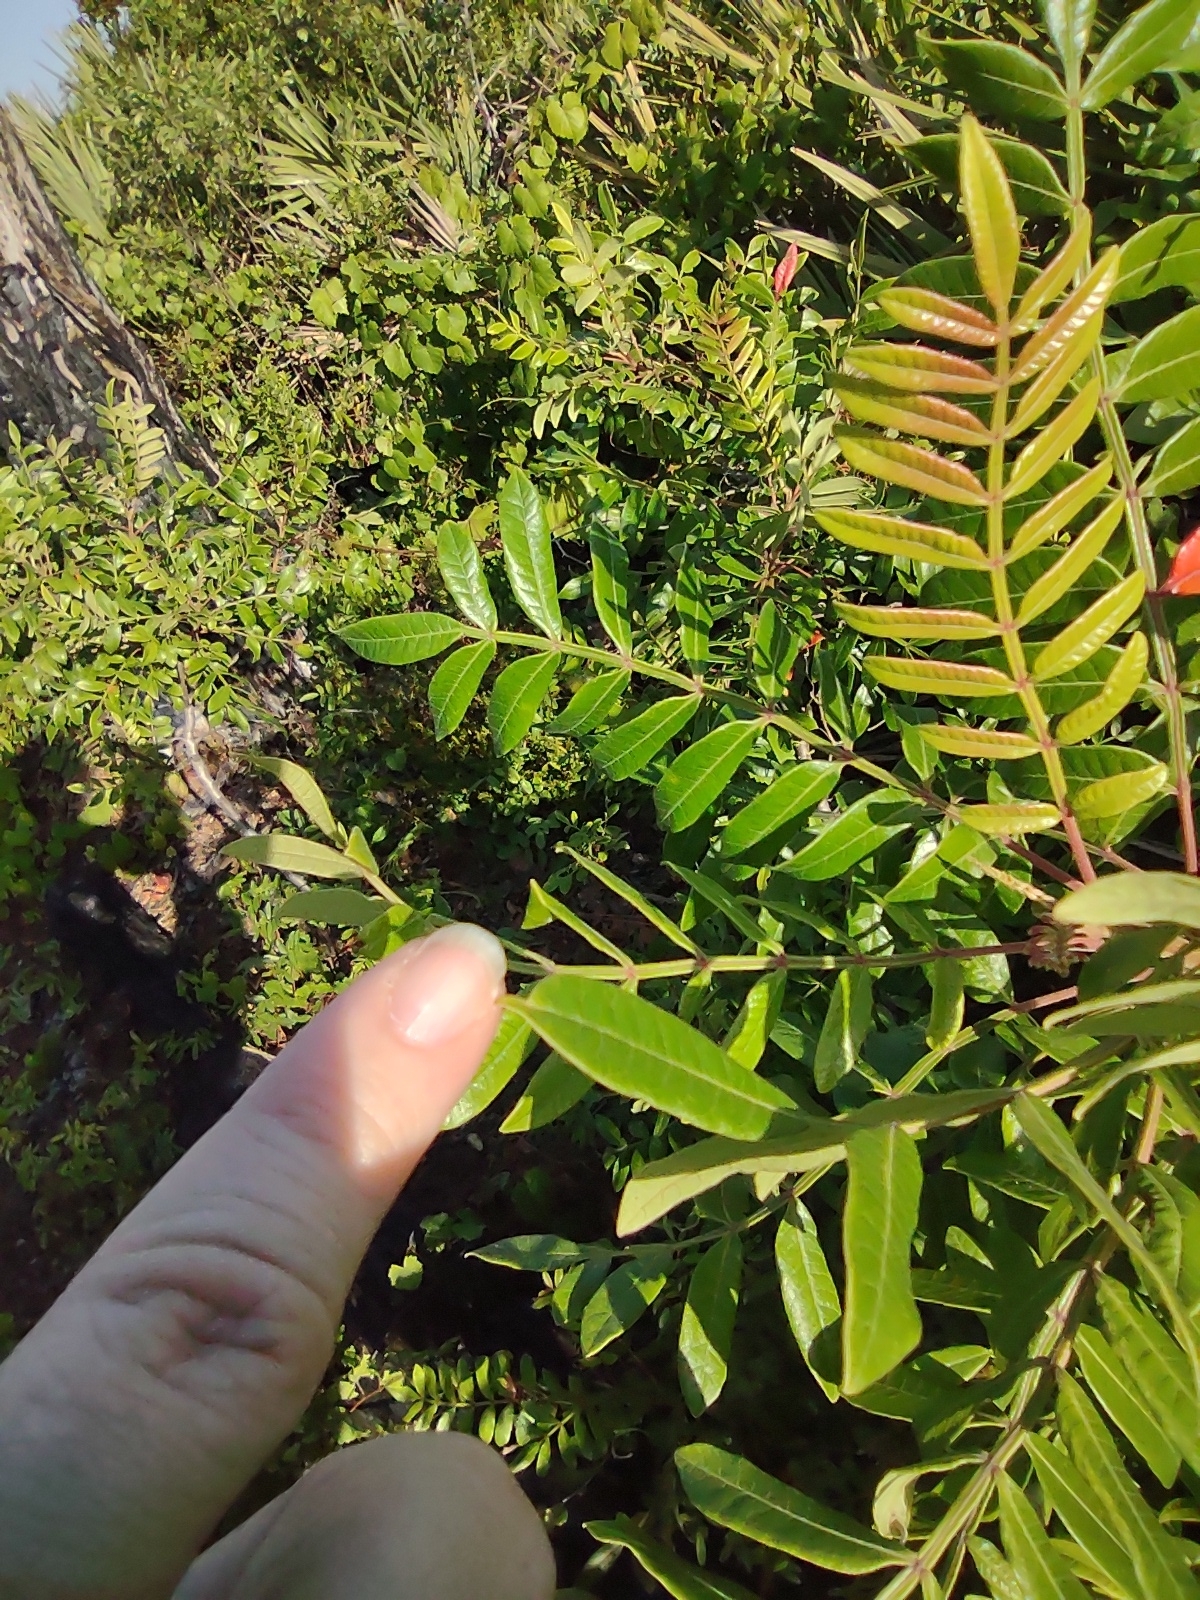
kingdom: Plantae
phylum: Tracheophyta
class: Magnoliopsida
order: Sapindales
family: Anacardiaceae
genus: Rhus
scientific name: Rhus copallina
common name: Shining sumac
